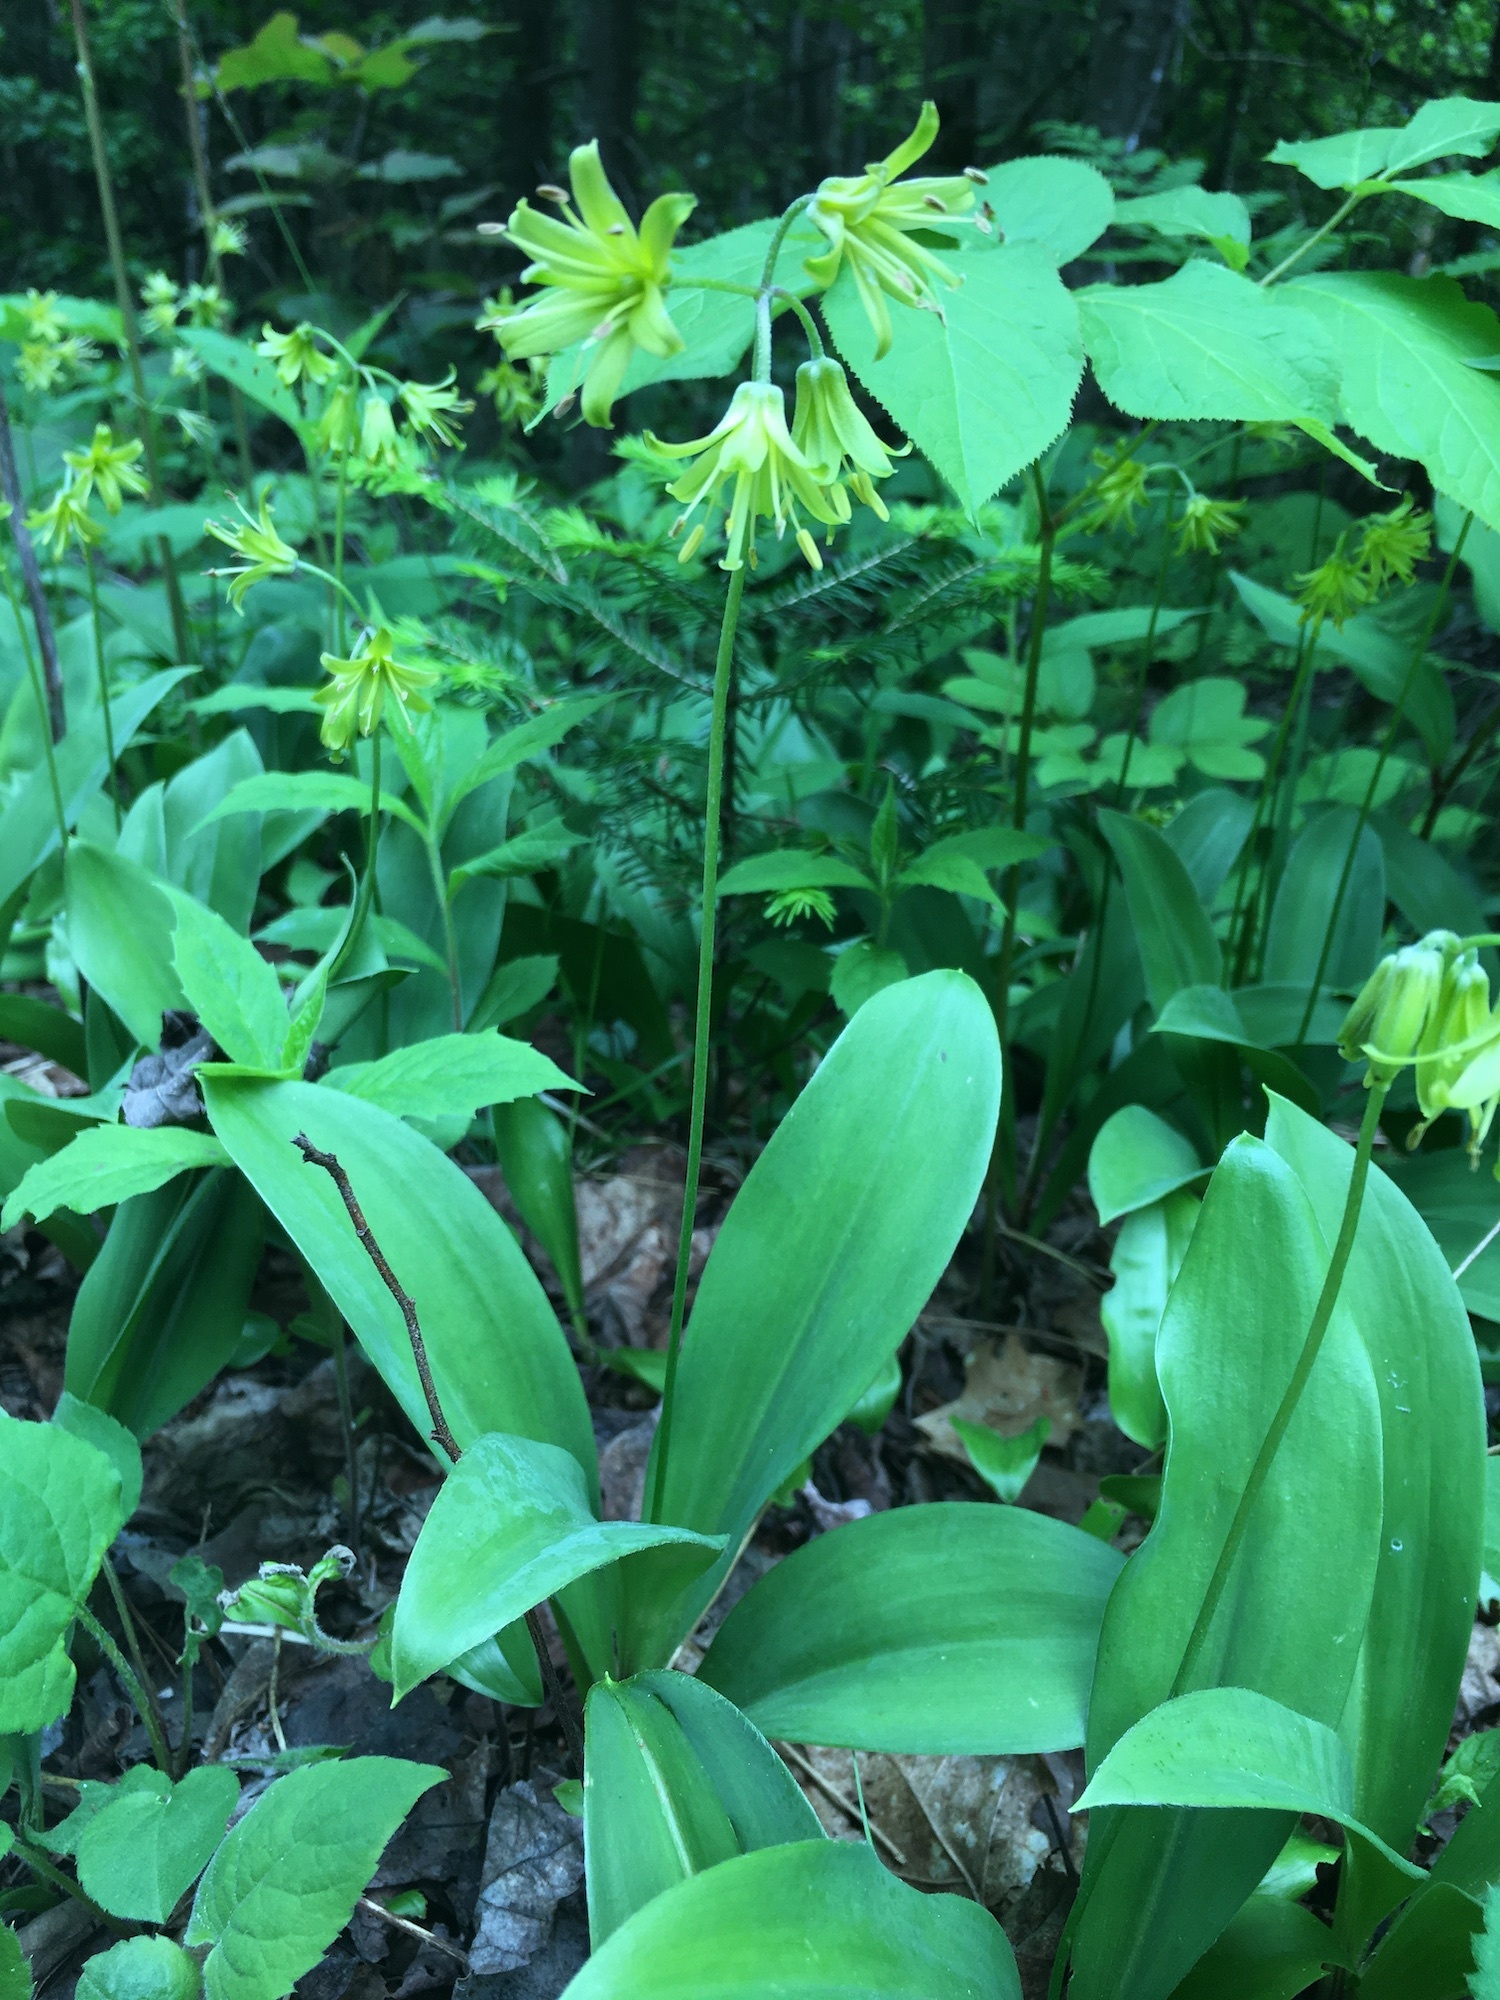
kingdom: Plantae
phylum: Tracheophyta
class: Liliopsida
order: Liliales
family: Liliaceae
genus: Clintonia
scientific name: Clintonia borealis
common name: Yellow clintonia
